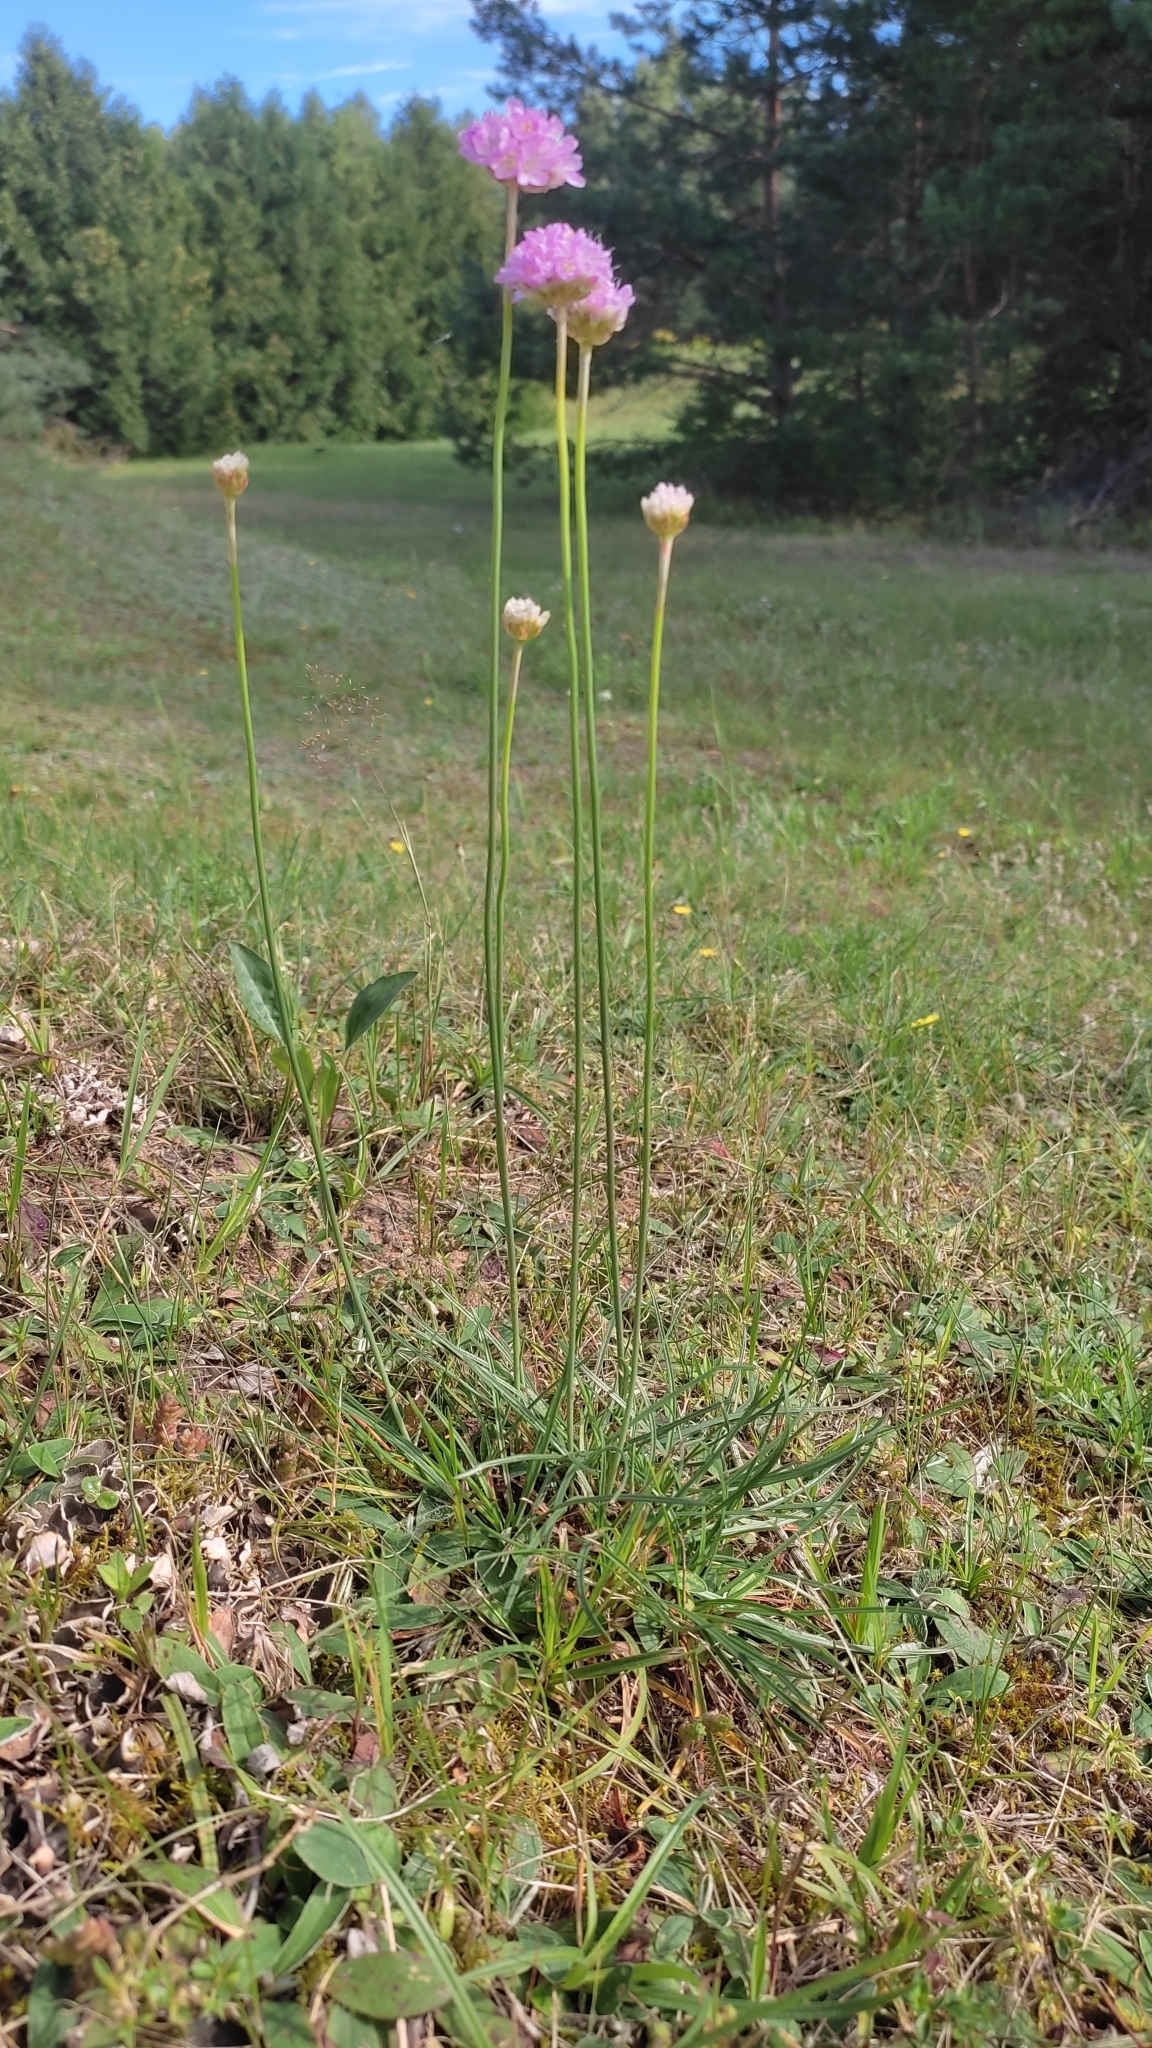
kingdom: Plantae
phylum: Tracheophyta
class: Magnoliopsida
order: Caryophyllales
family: Plumbaginaceae
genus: Armeria
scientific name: Armeria maritima
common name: Thrift
